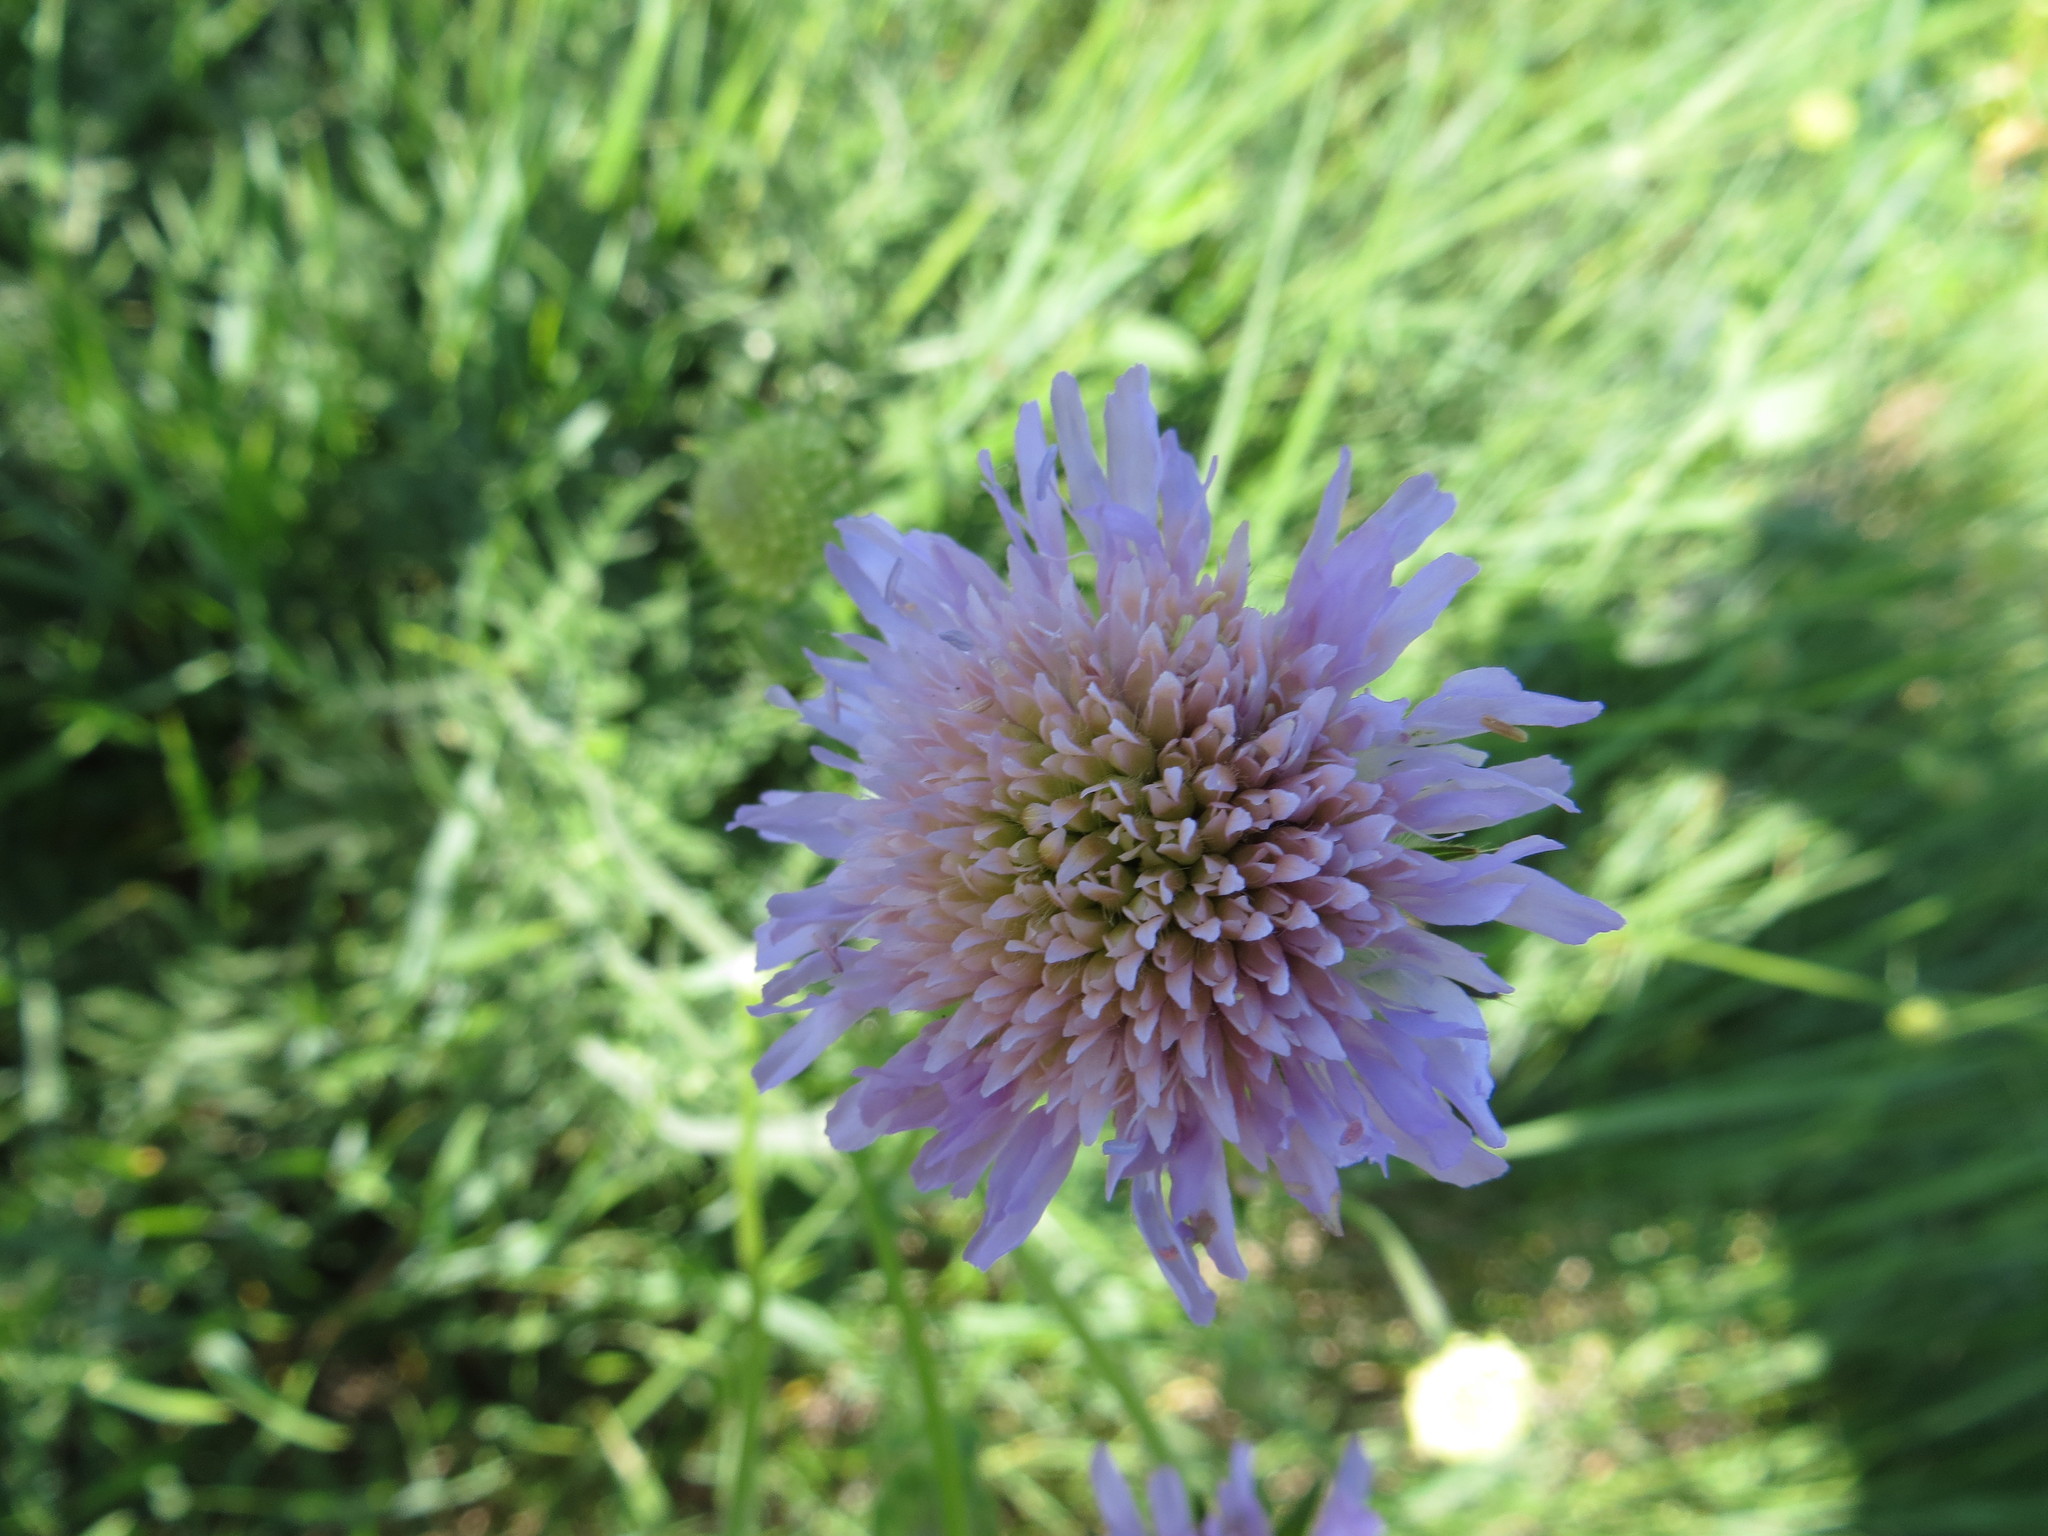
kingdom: Plantae
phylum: Tracheophyta
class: Magnoliopsida
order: Dipsacales
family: Caprifoliaceae
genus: Knautia
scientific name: Knautia arvensis
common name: Field scabiosa
